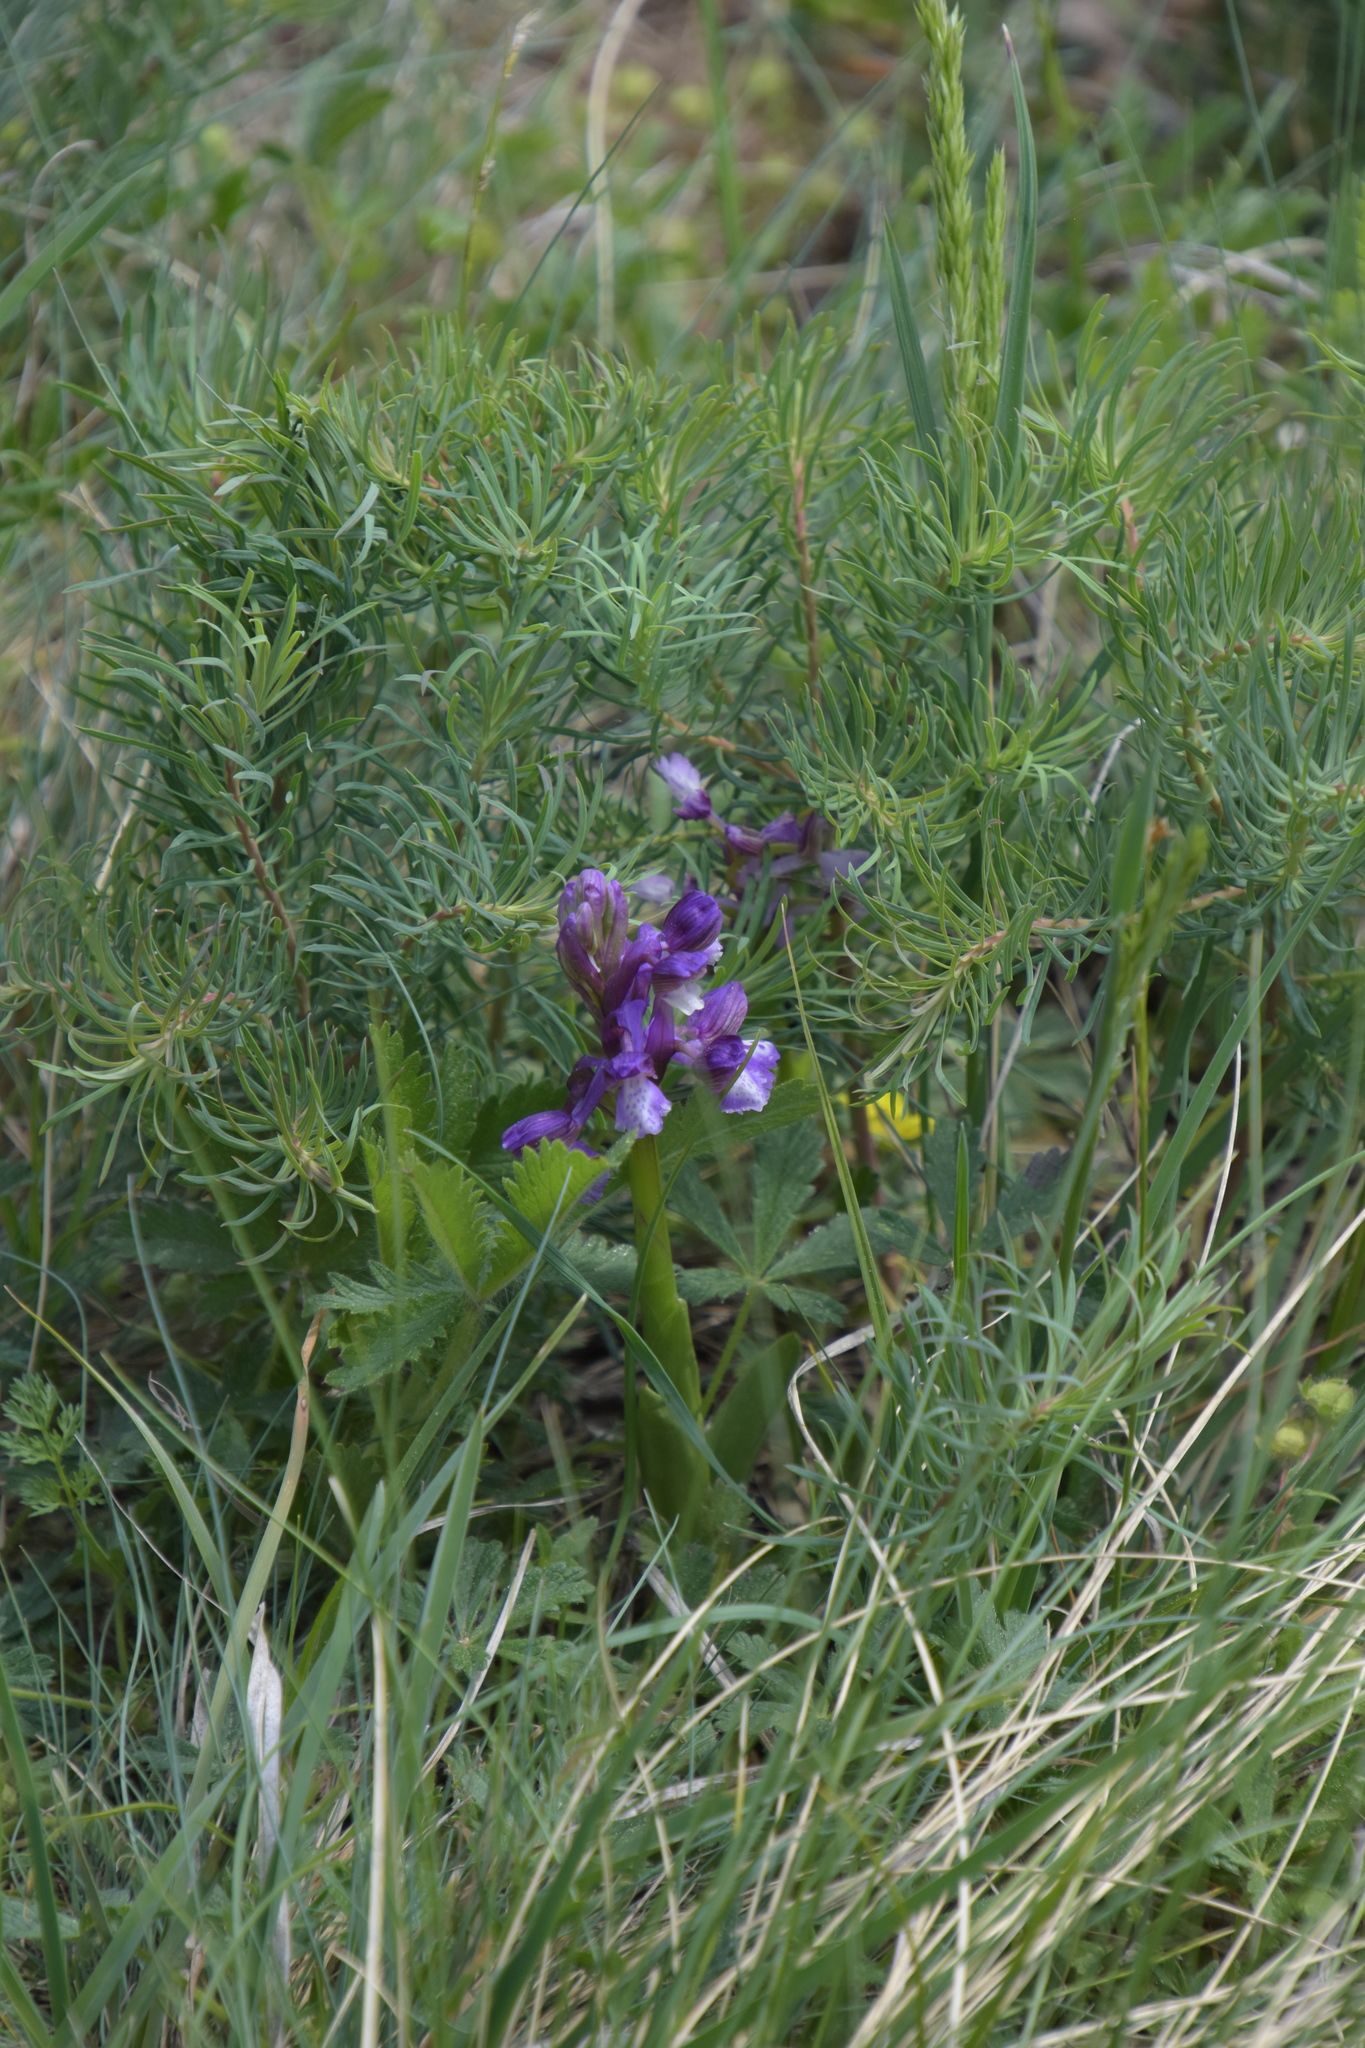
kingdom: Plantae
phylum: Tracheophyta
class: Liliopsida
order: Asparagales
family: Orchidaceae
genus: Anacamptis
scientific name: Anacamptis morio
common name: Green-winged orchid
